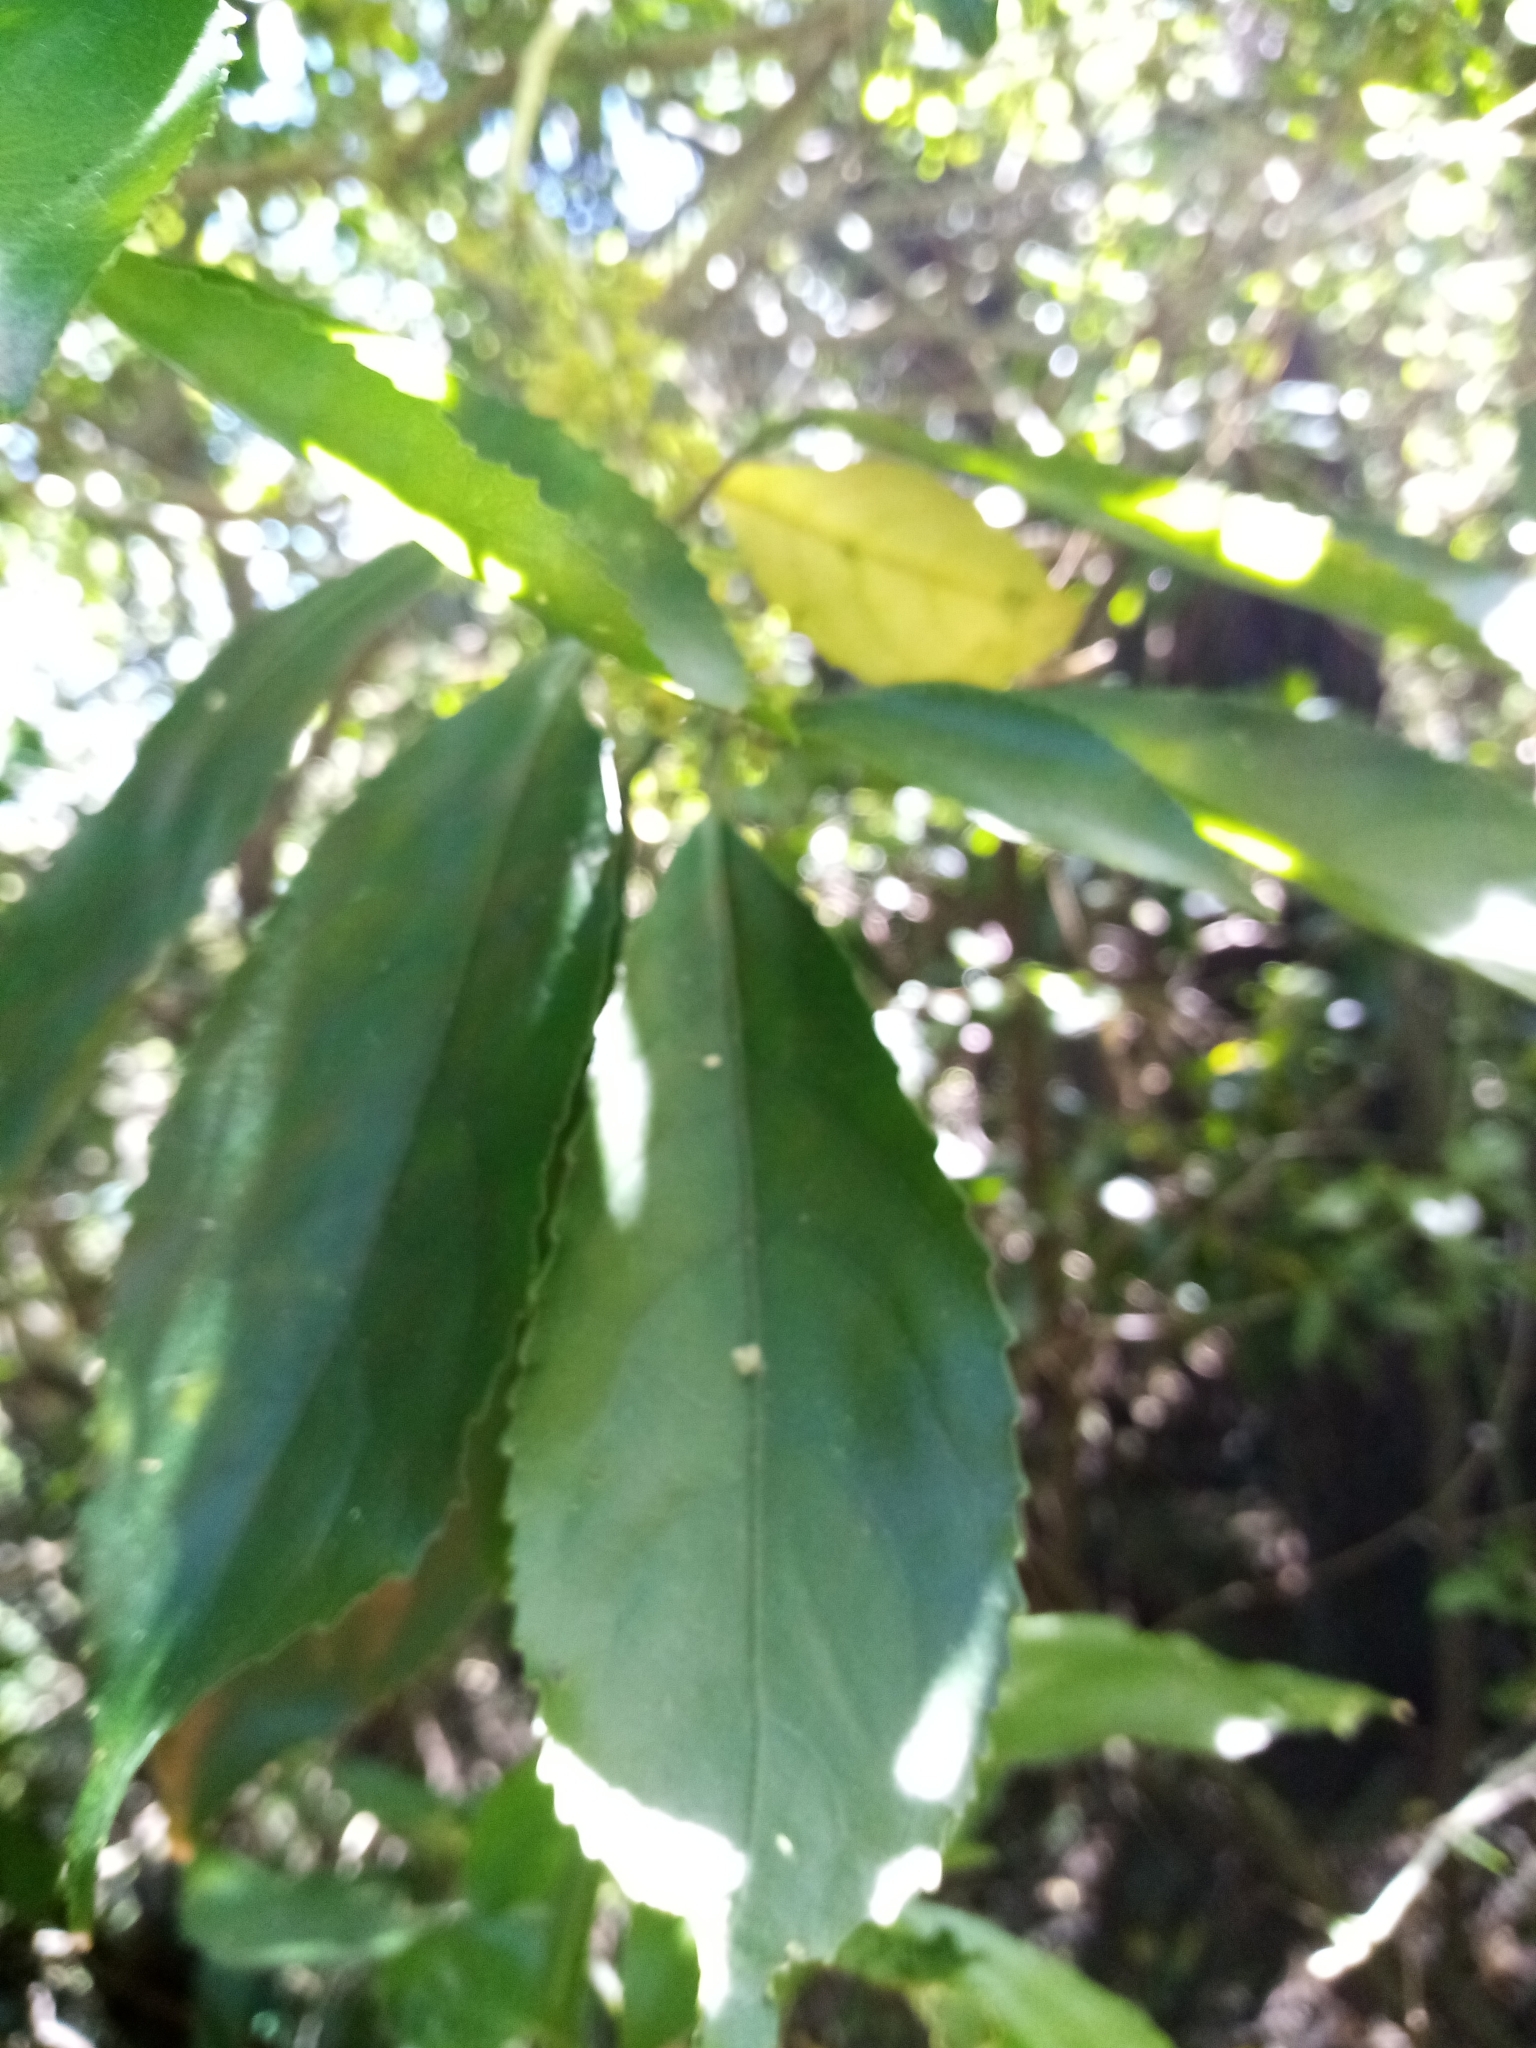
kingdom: Plantae
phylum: Tracheophyta
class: Magnoliopsida
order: Malpighiales
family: Violaceae
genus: Melicytus
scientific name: Melicytus ramiflorus
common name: Mahoe
